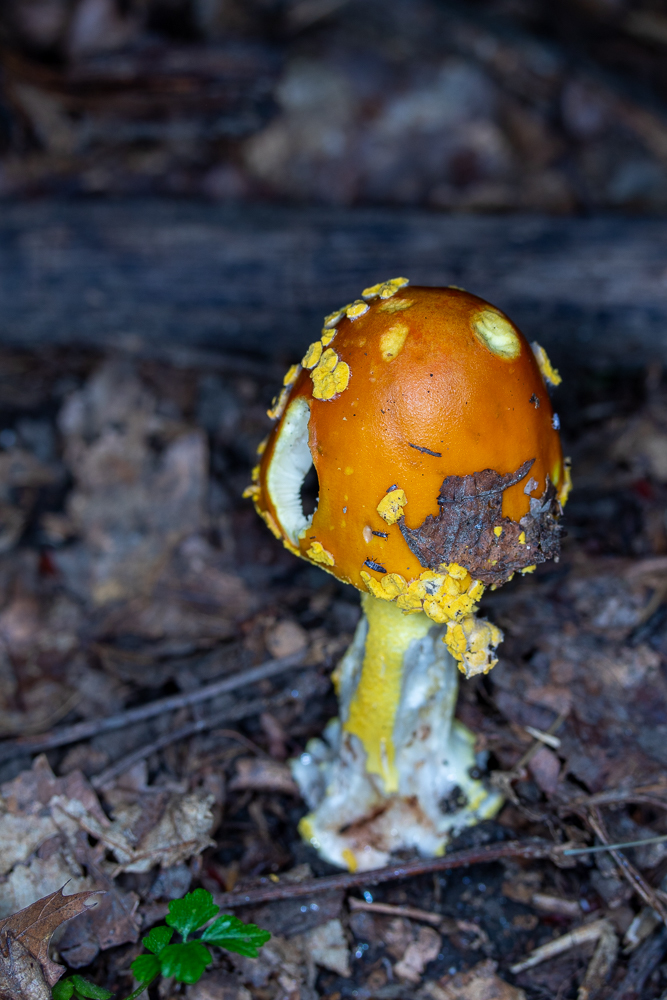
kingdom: Fungi
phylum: Basidiomycota
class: Agaricomycetes
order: Agaricales
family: Amanitaceae
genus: Amanita
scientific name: Amanita flavoconia
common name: Yellow patches
